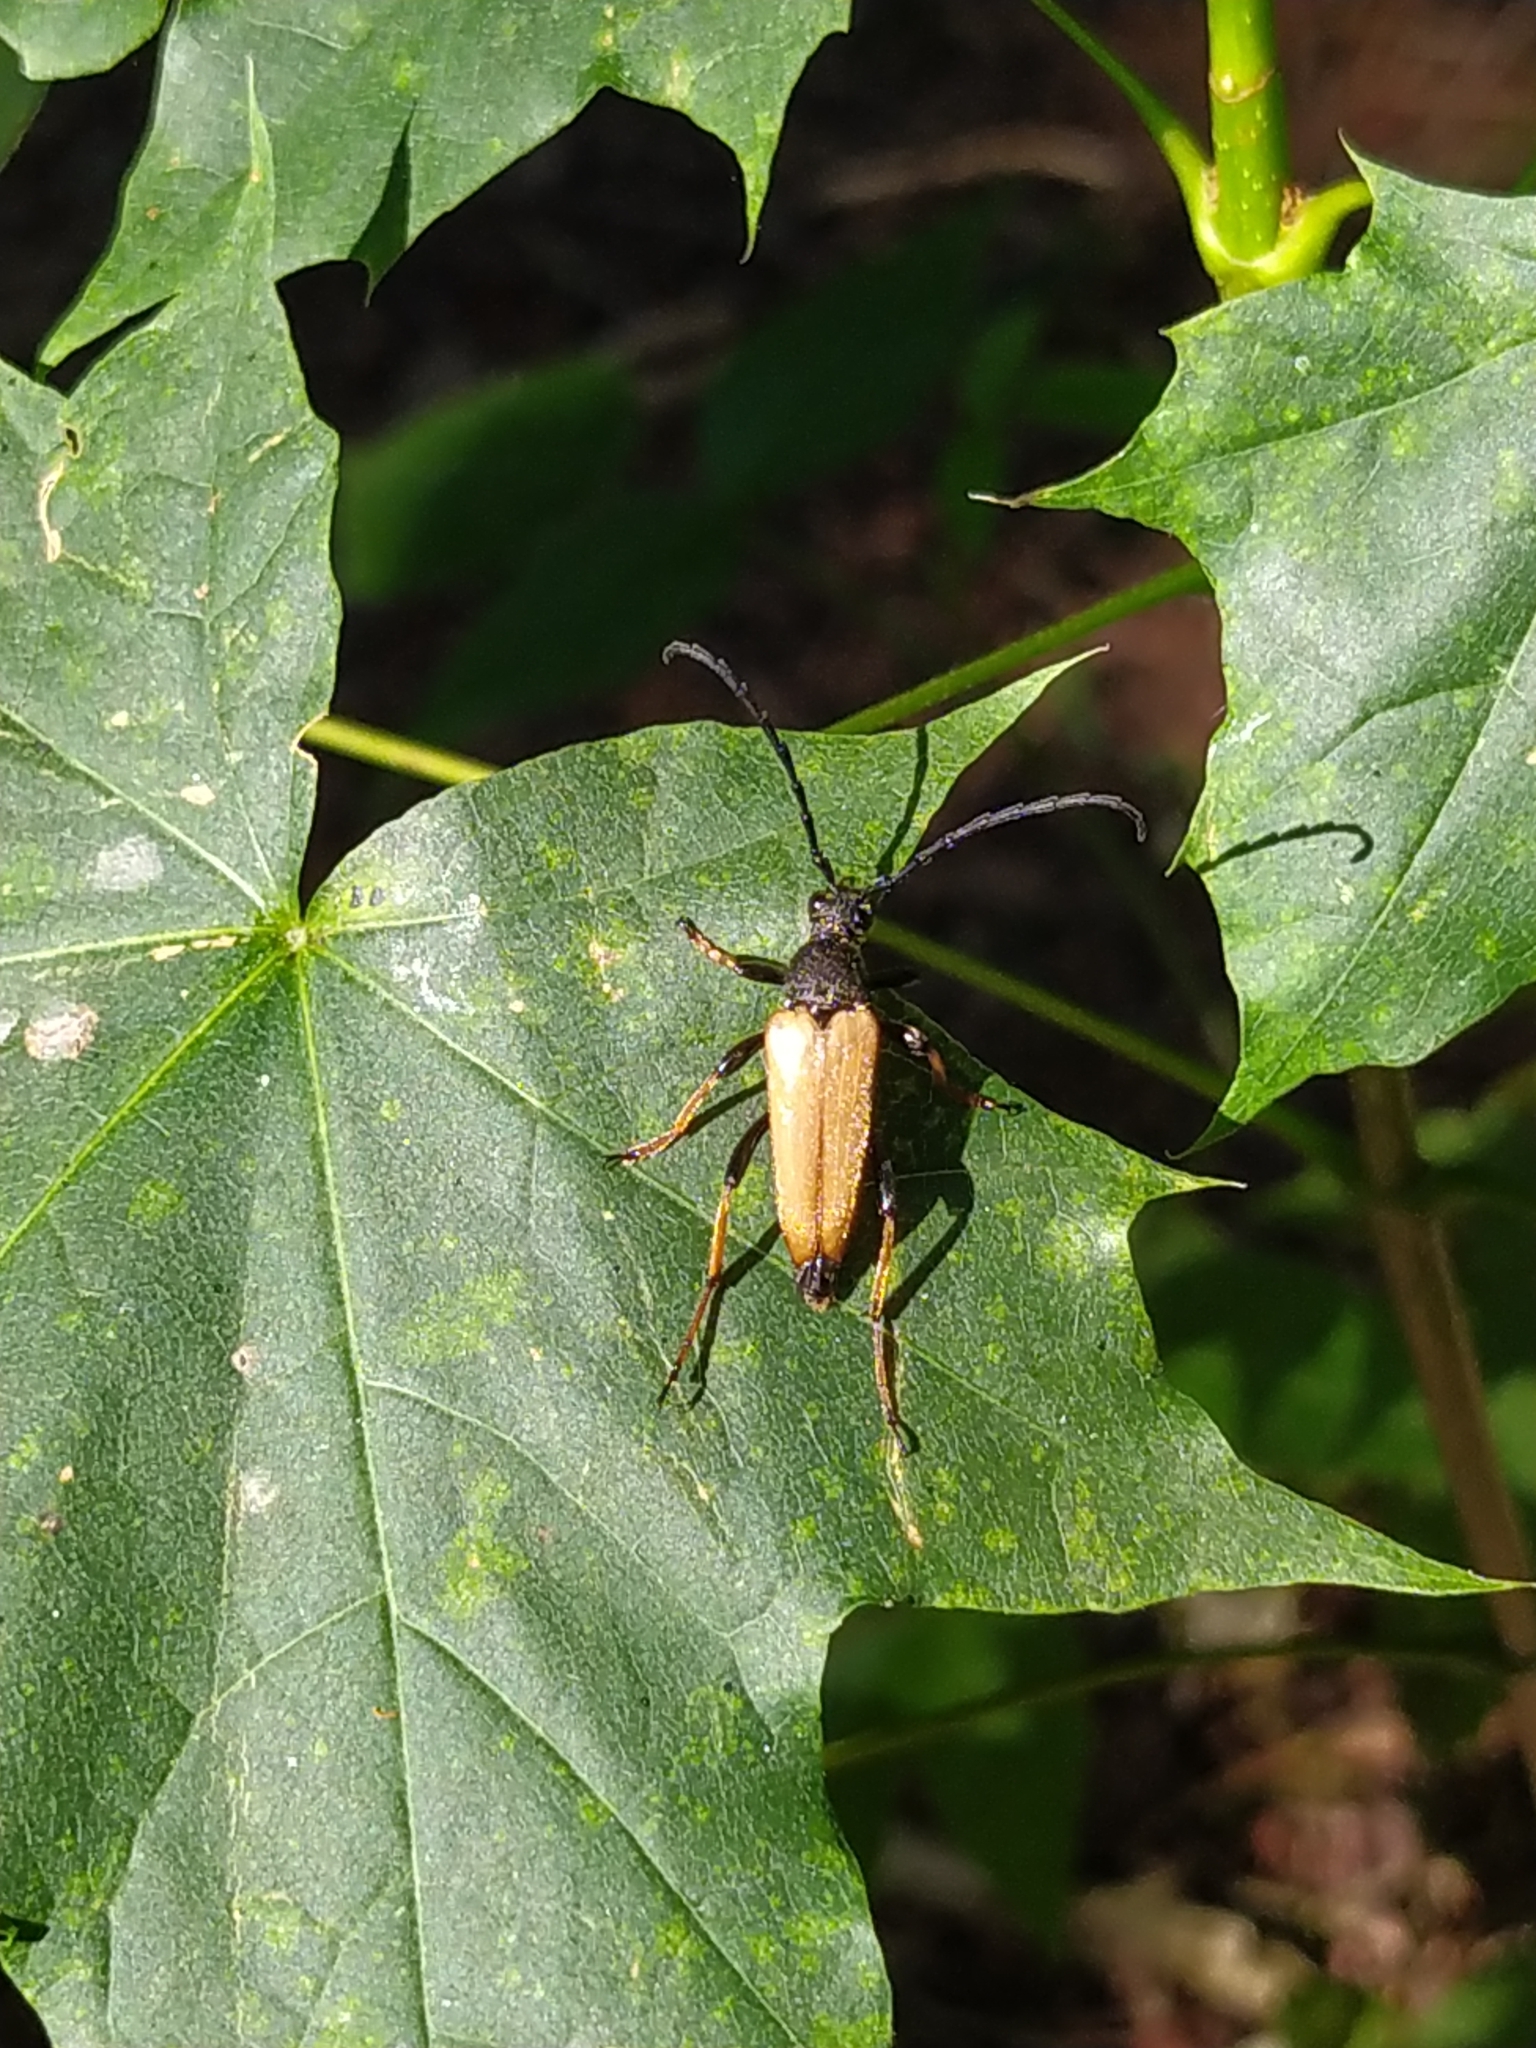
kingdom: Animalia
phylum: Arthropoda
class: Insecta
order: Coleoptera
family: Cerambycidae
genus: Stictoleptura
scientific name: Stictoleptura rubra
